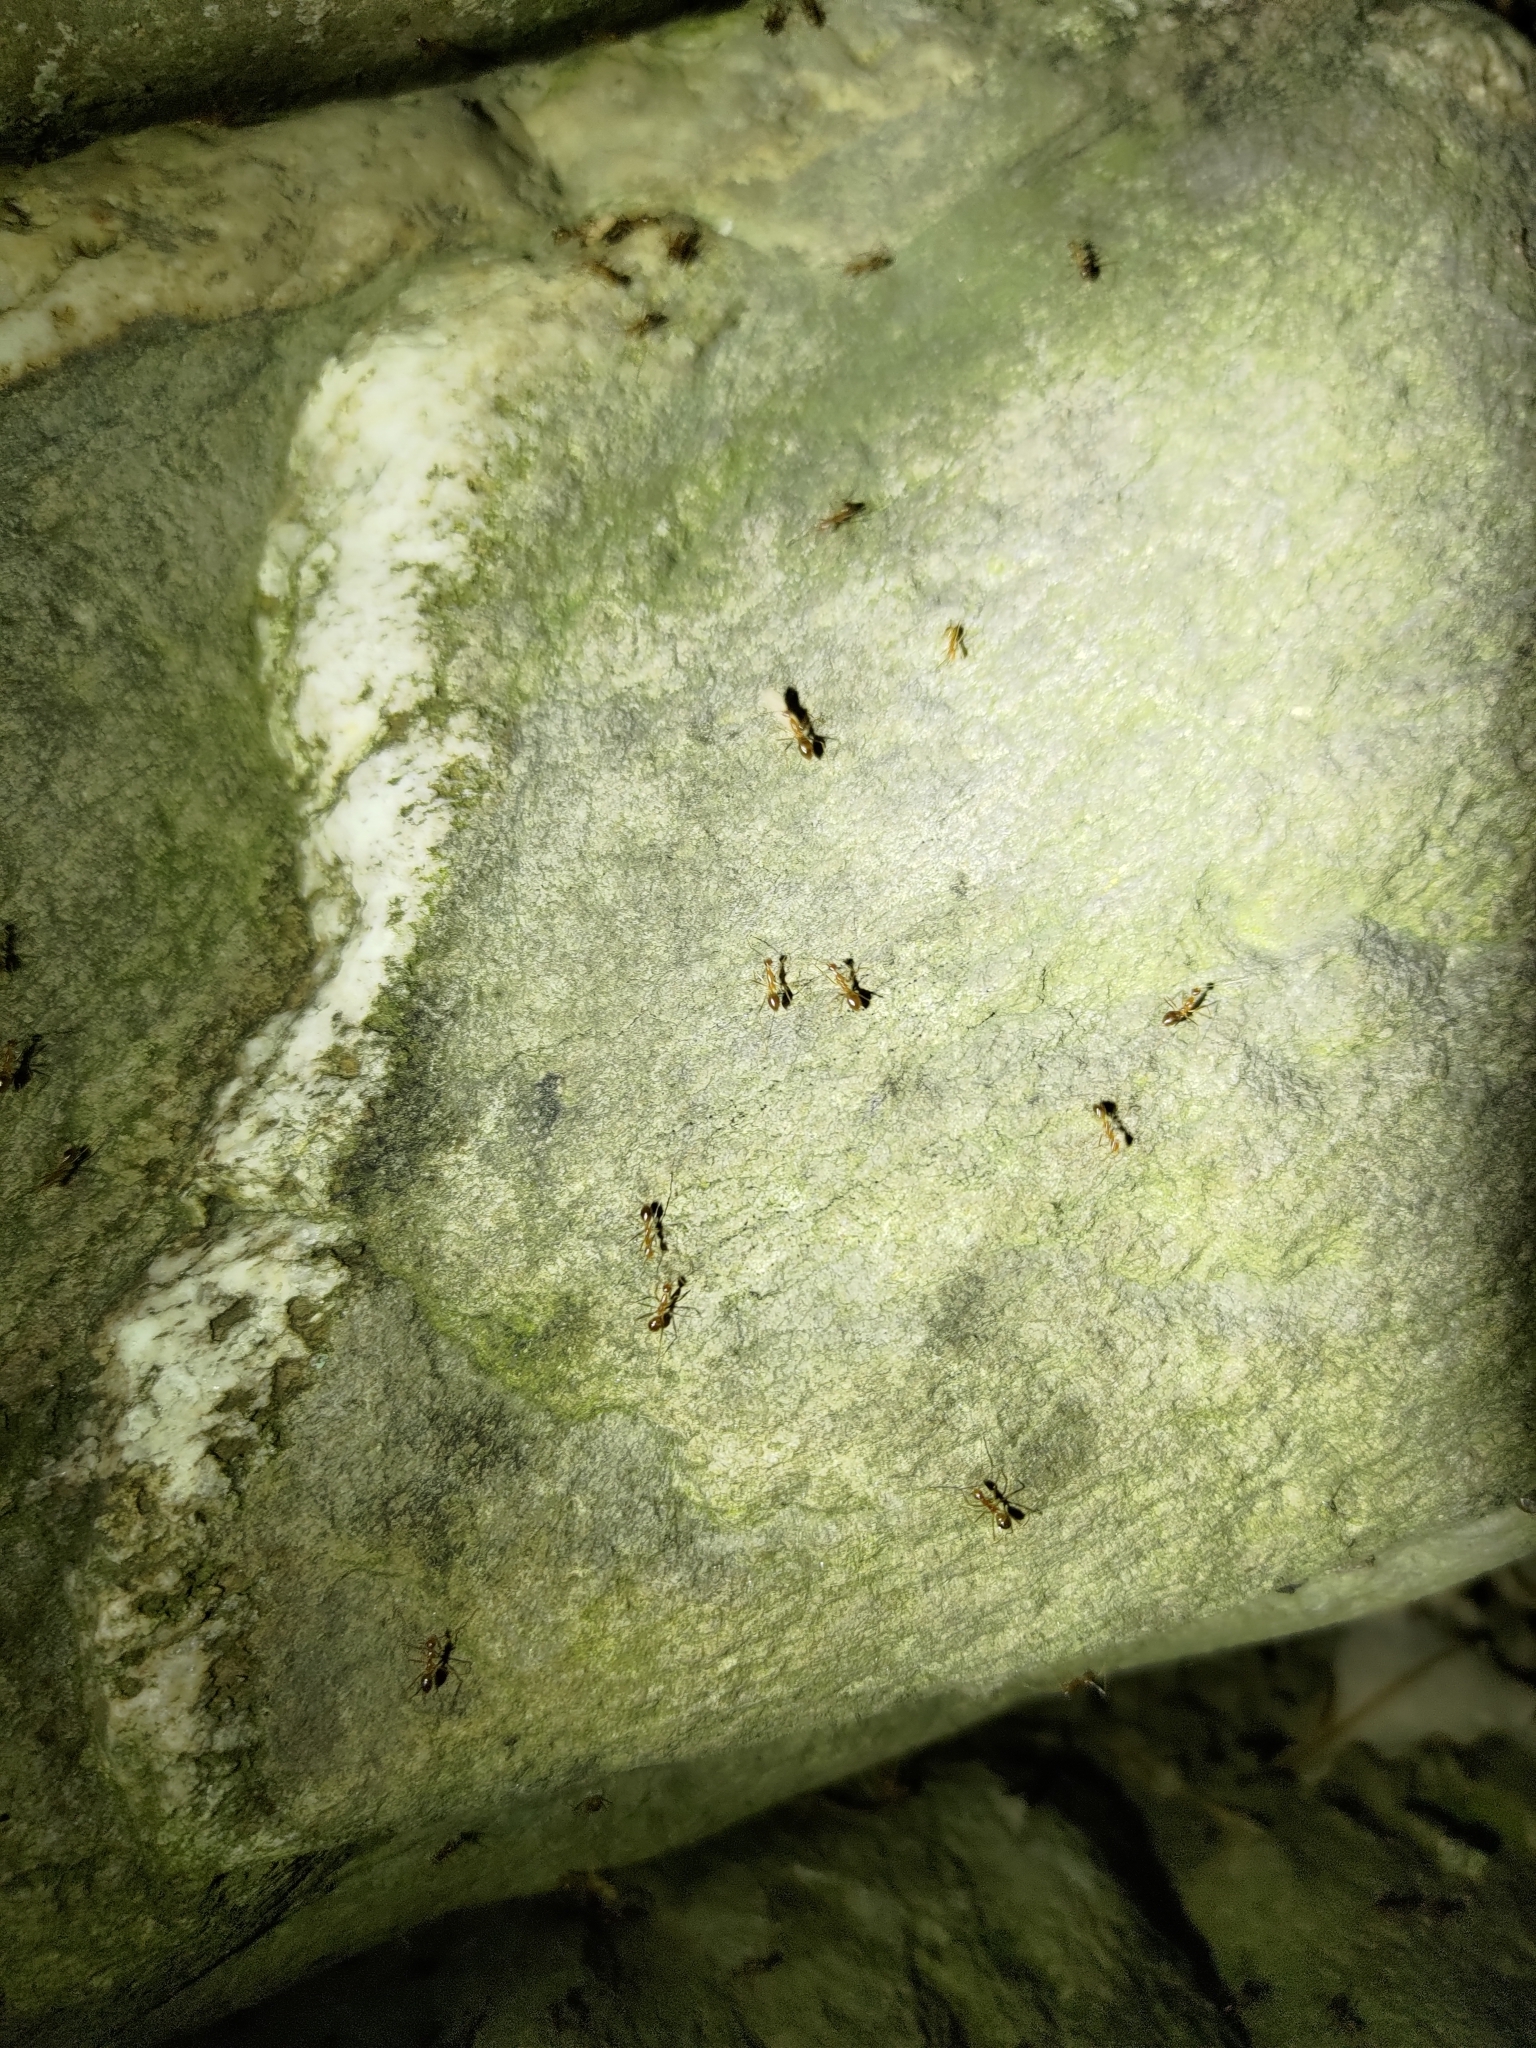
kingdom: Animalia
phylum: Arthropoda
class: Insecta
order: Hymenoptera
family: Formicidae
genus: Anoplolepis
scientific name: Anoplolepis gracilipes
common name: Ant
